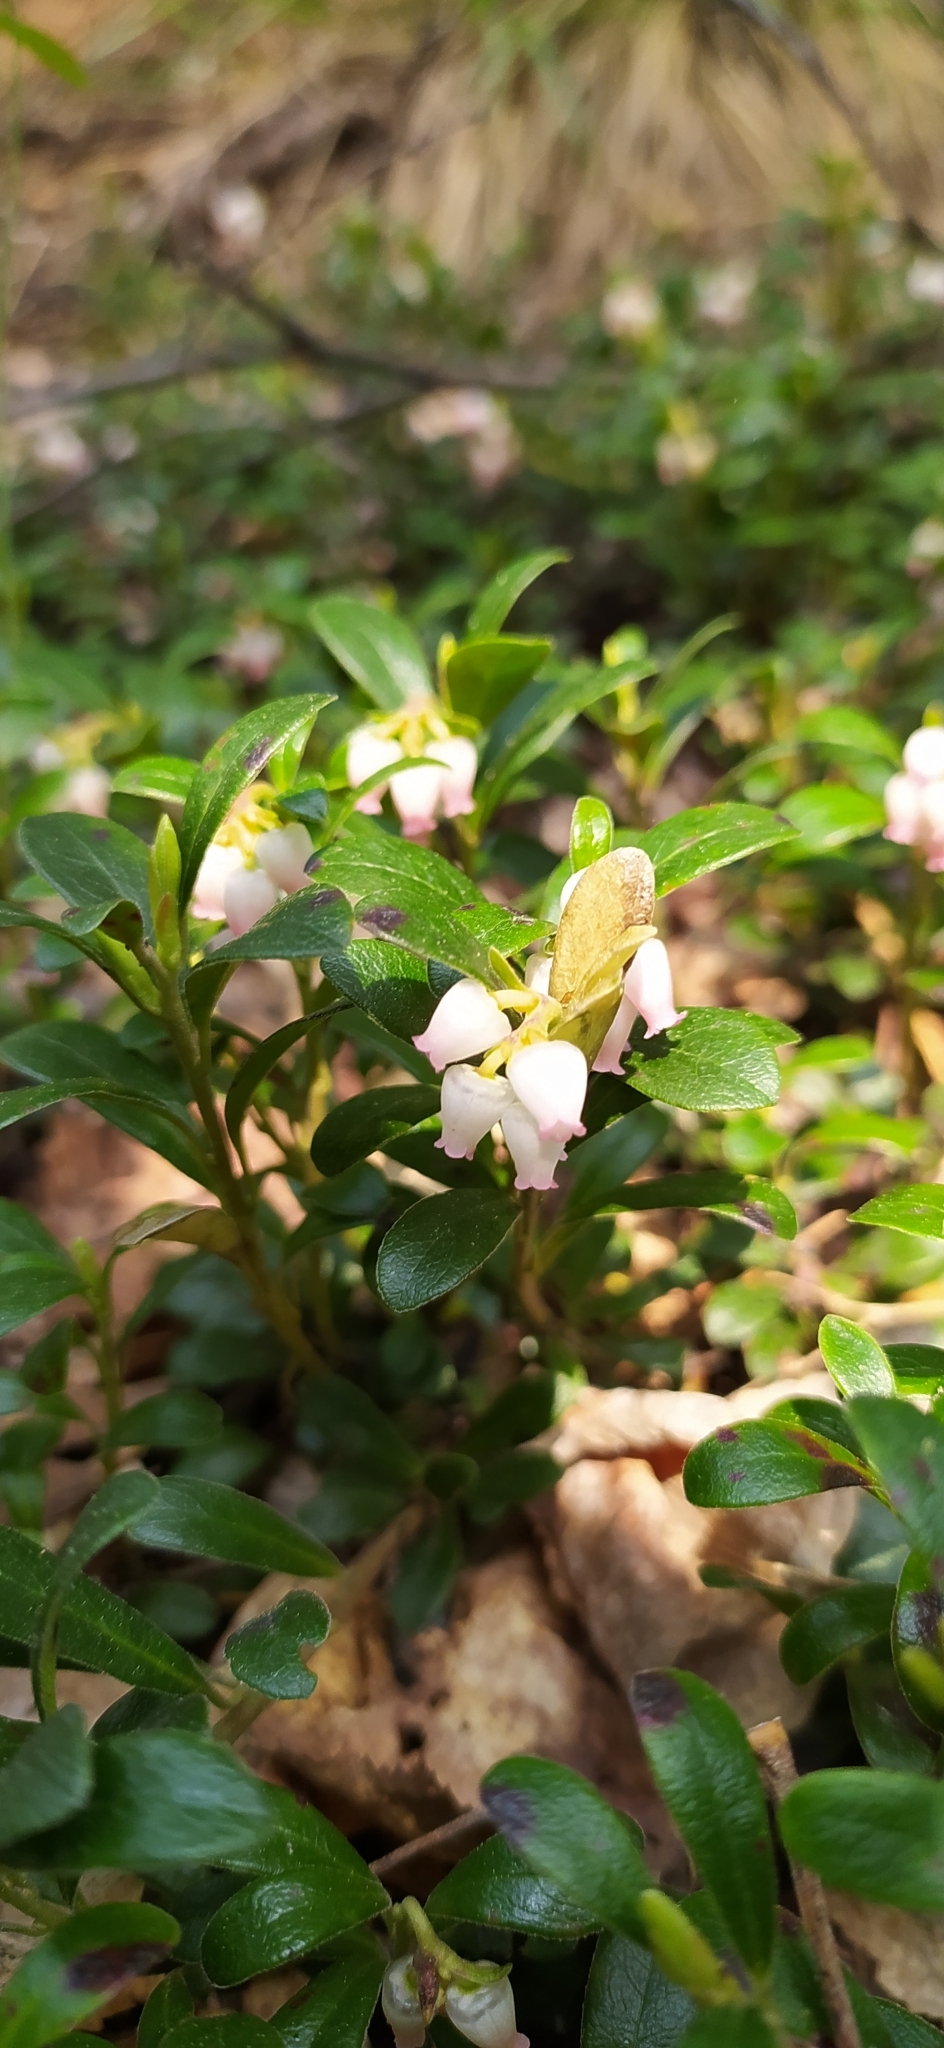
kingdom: Plantae
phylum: Tracheophyta
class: Magnoliopsida
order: Ericales
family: Ericaceae
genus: Vaccinium
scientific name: Vaccinium vitis-idaea
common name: Cowberry
